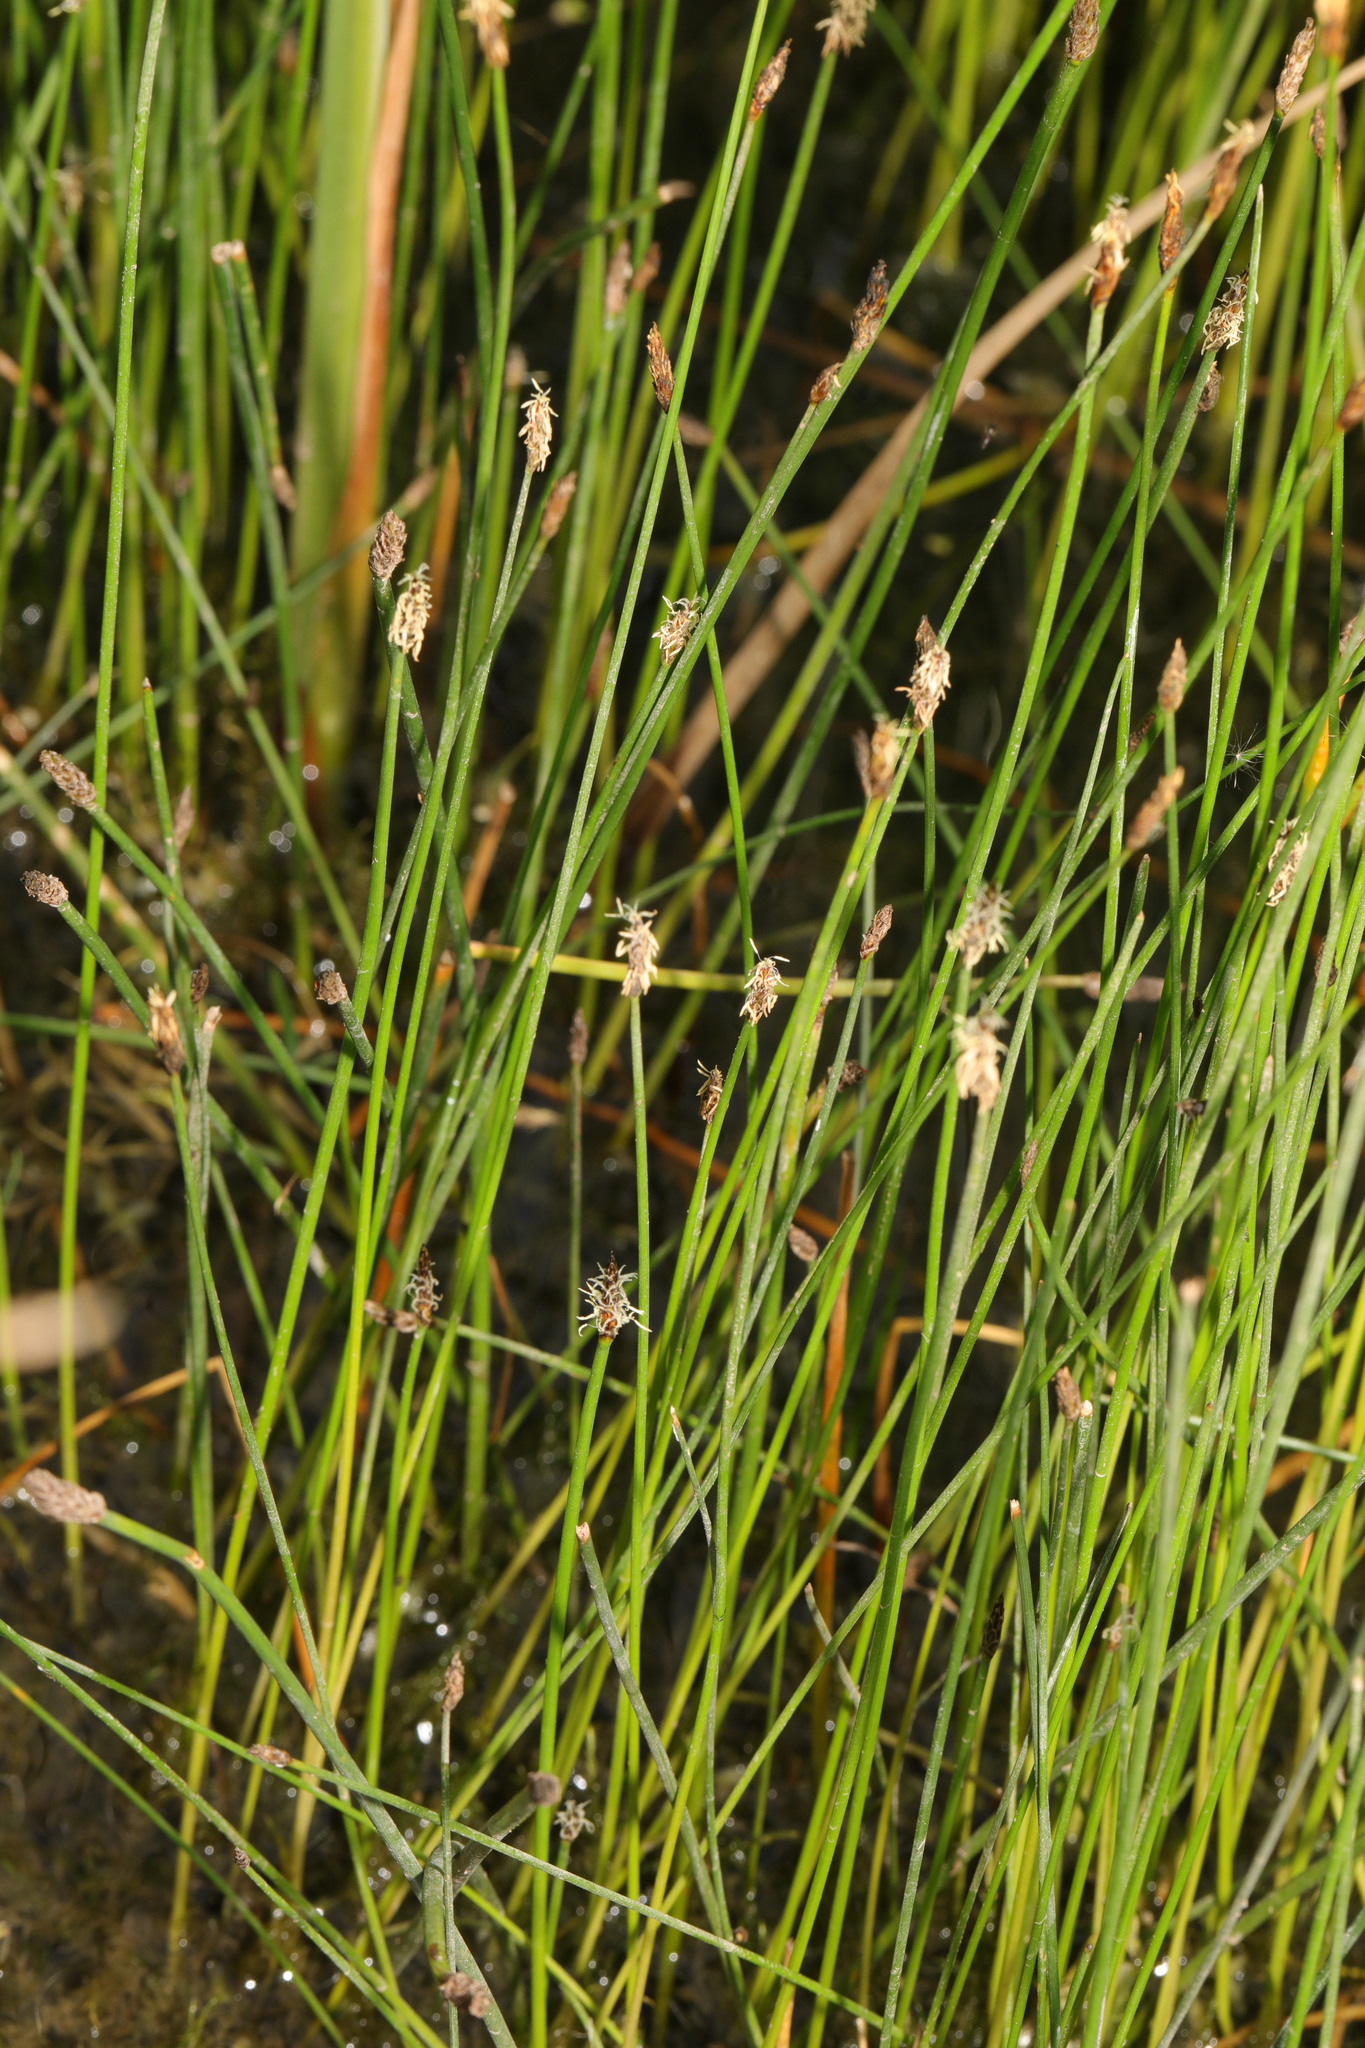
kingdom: Plantae
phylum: Tracheophyta
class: Liliopsida
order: Poales
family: Cyperaceae
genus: Eleocharis
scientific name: Eleocharis palustris
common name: Common spike-rush
